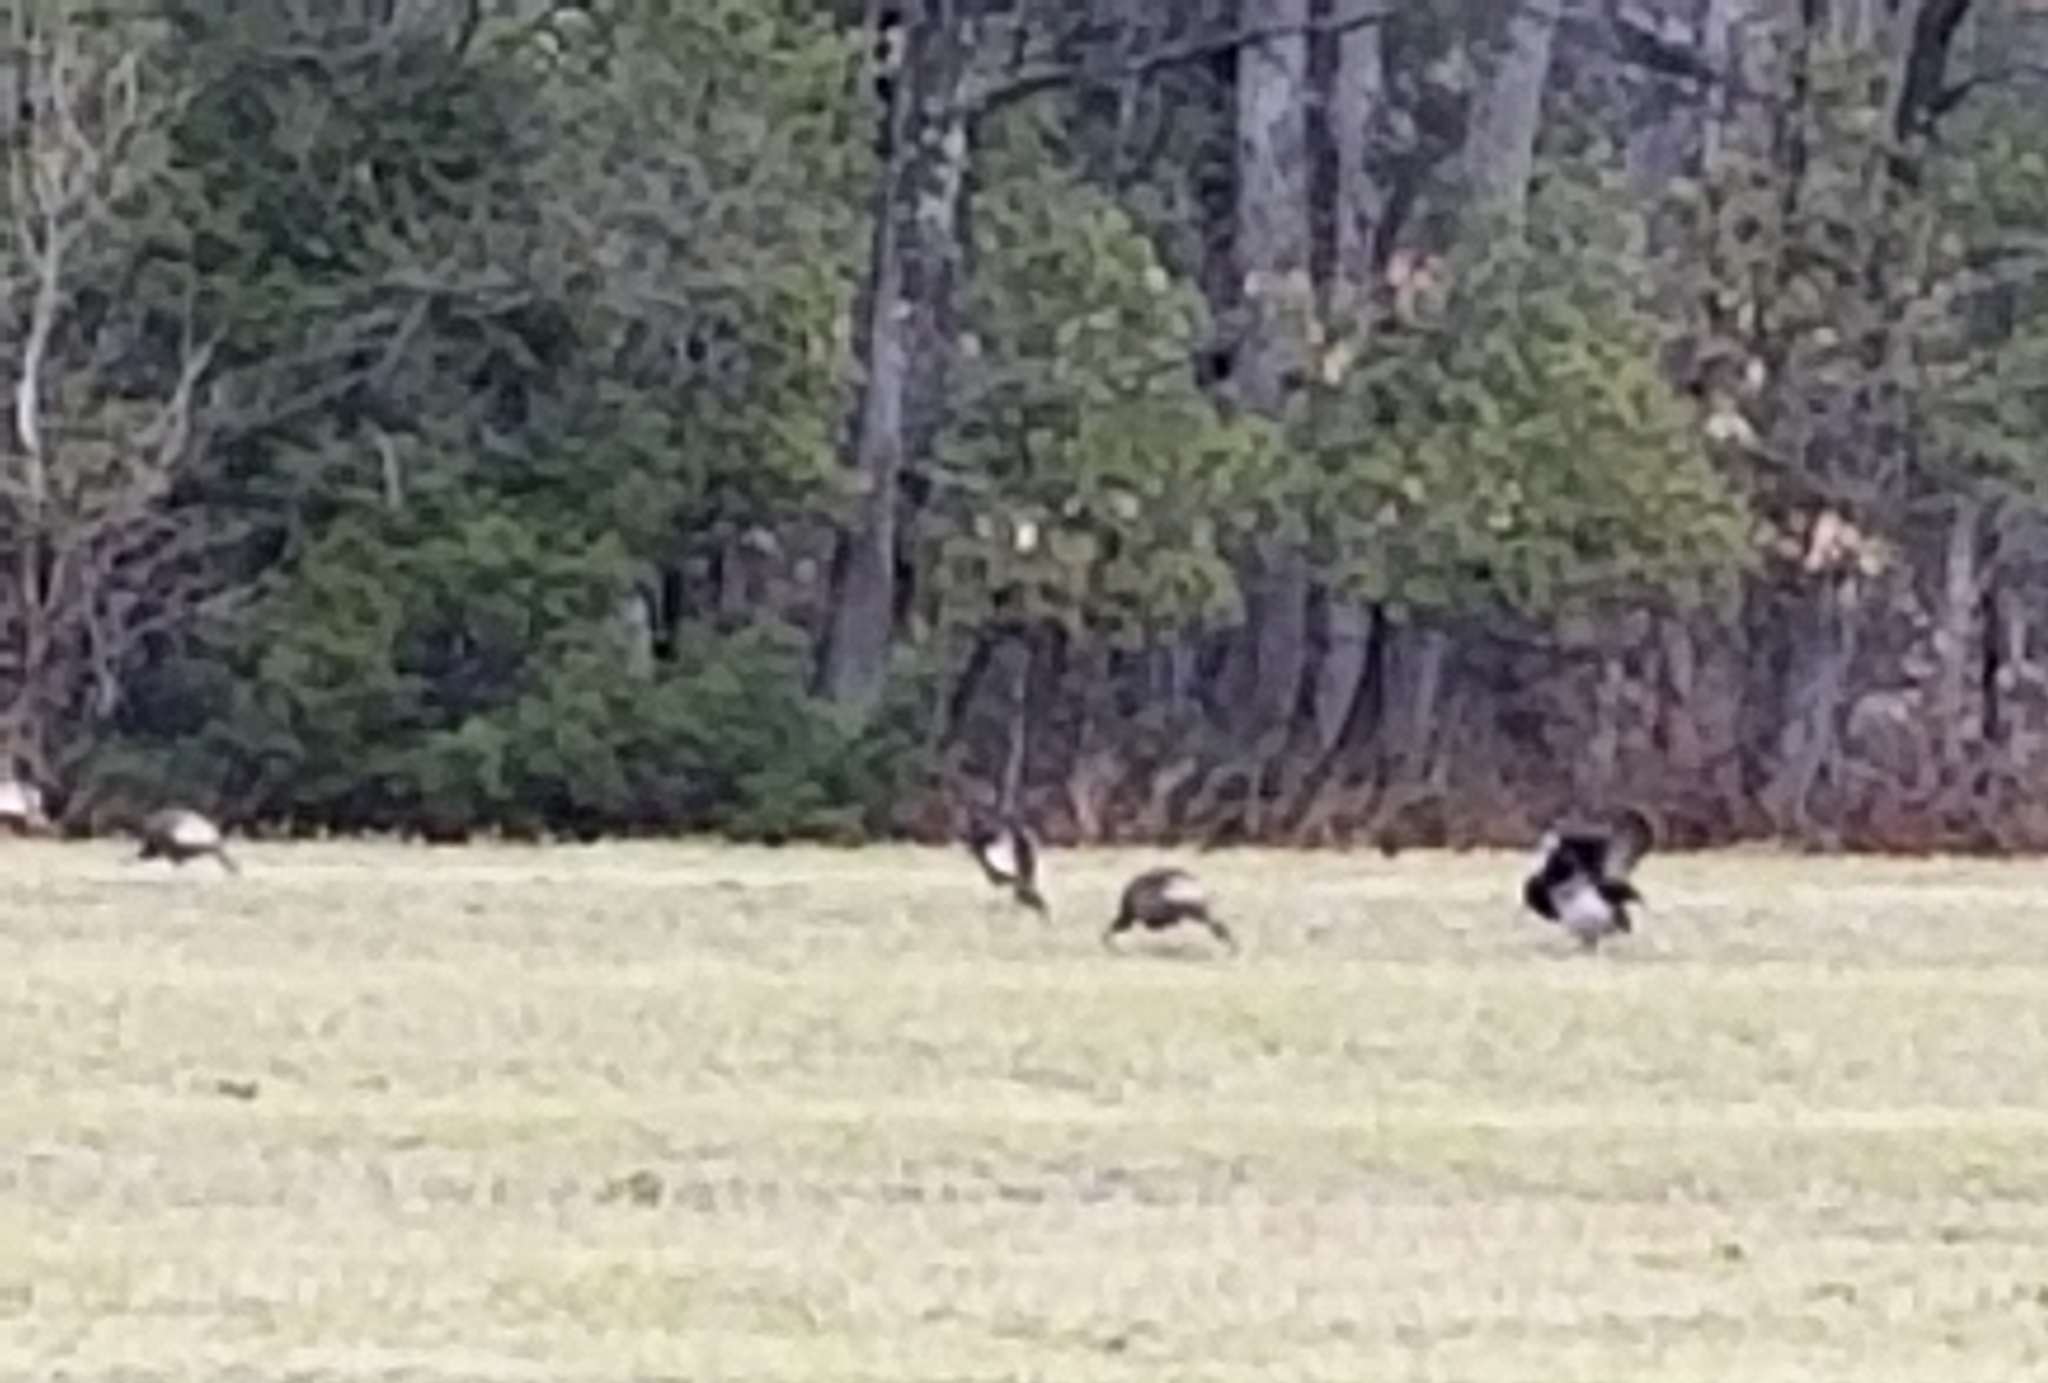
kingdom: Animalia
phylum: Chordata
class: Aves
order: Galliformes
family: Phasianidae
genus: Meleagris
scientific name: Meleagris gallopavo
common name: Wild turkey
